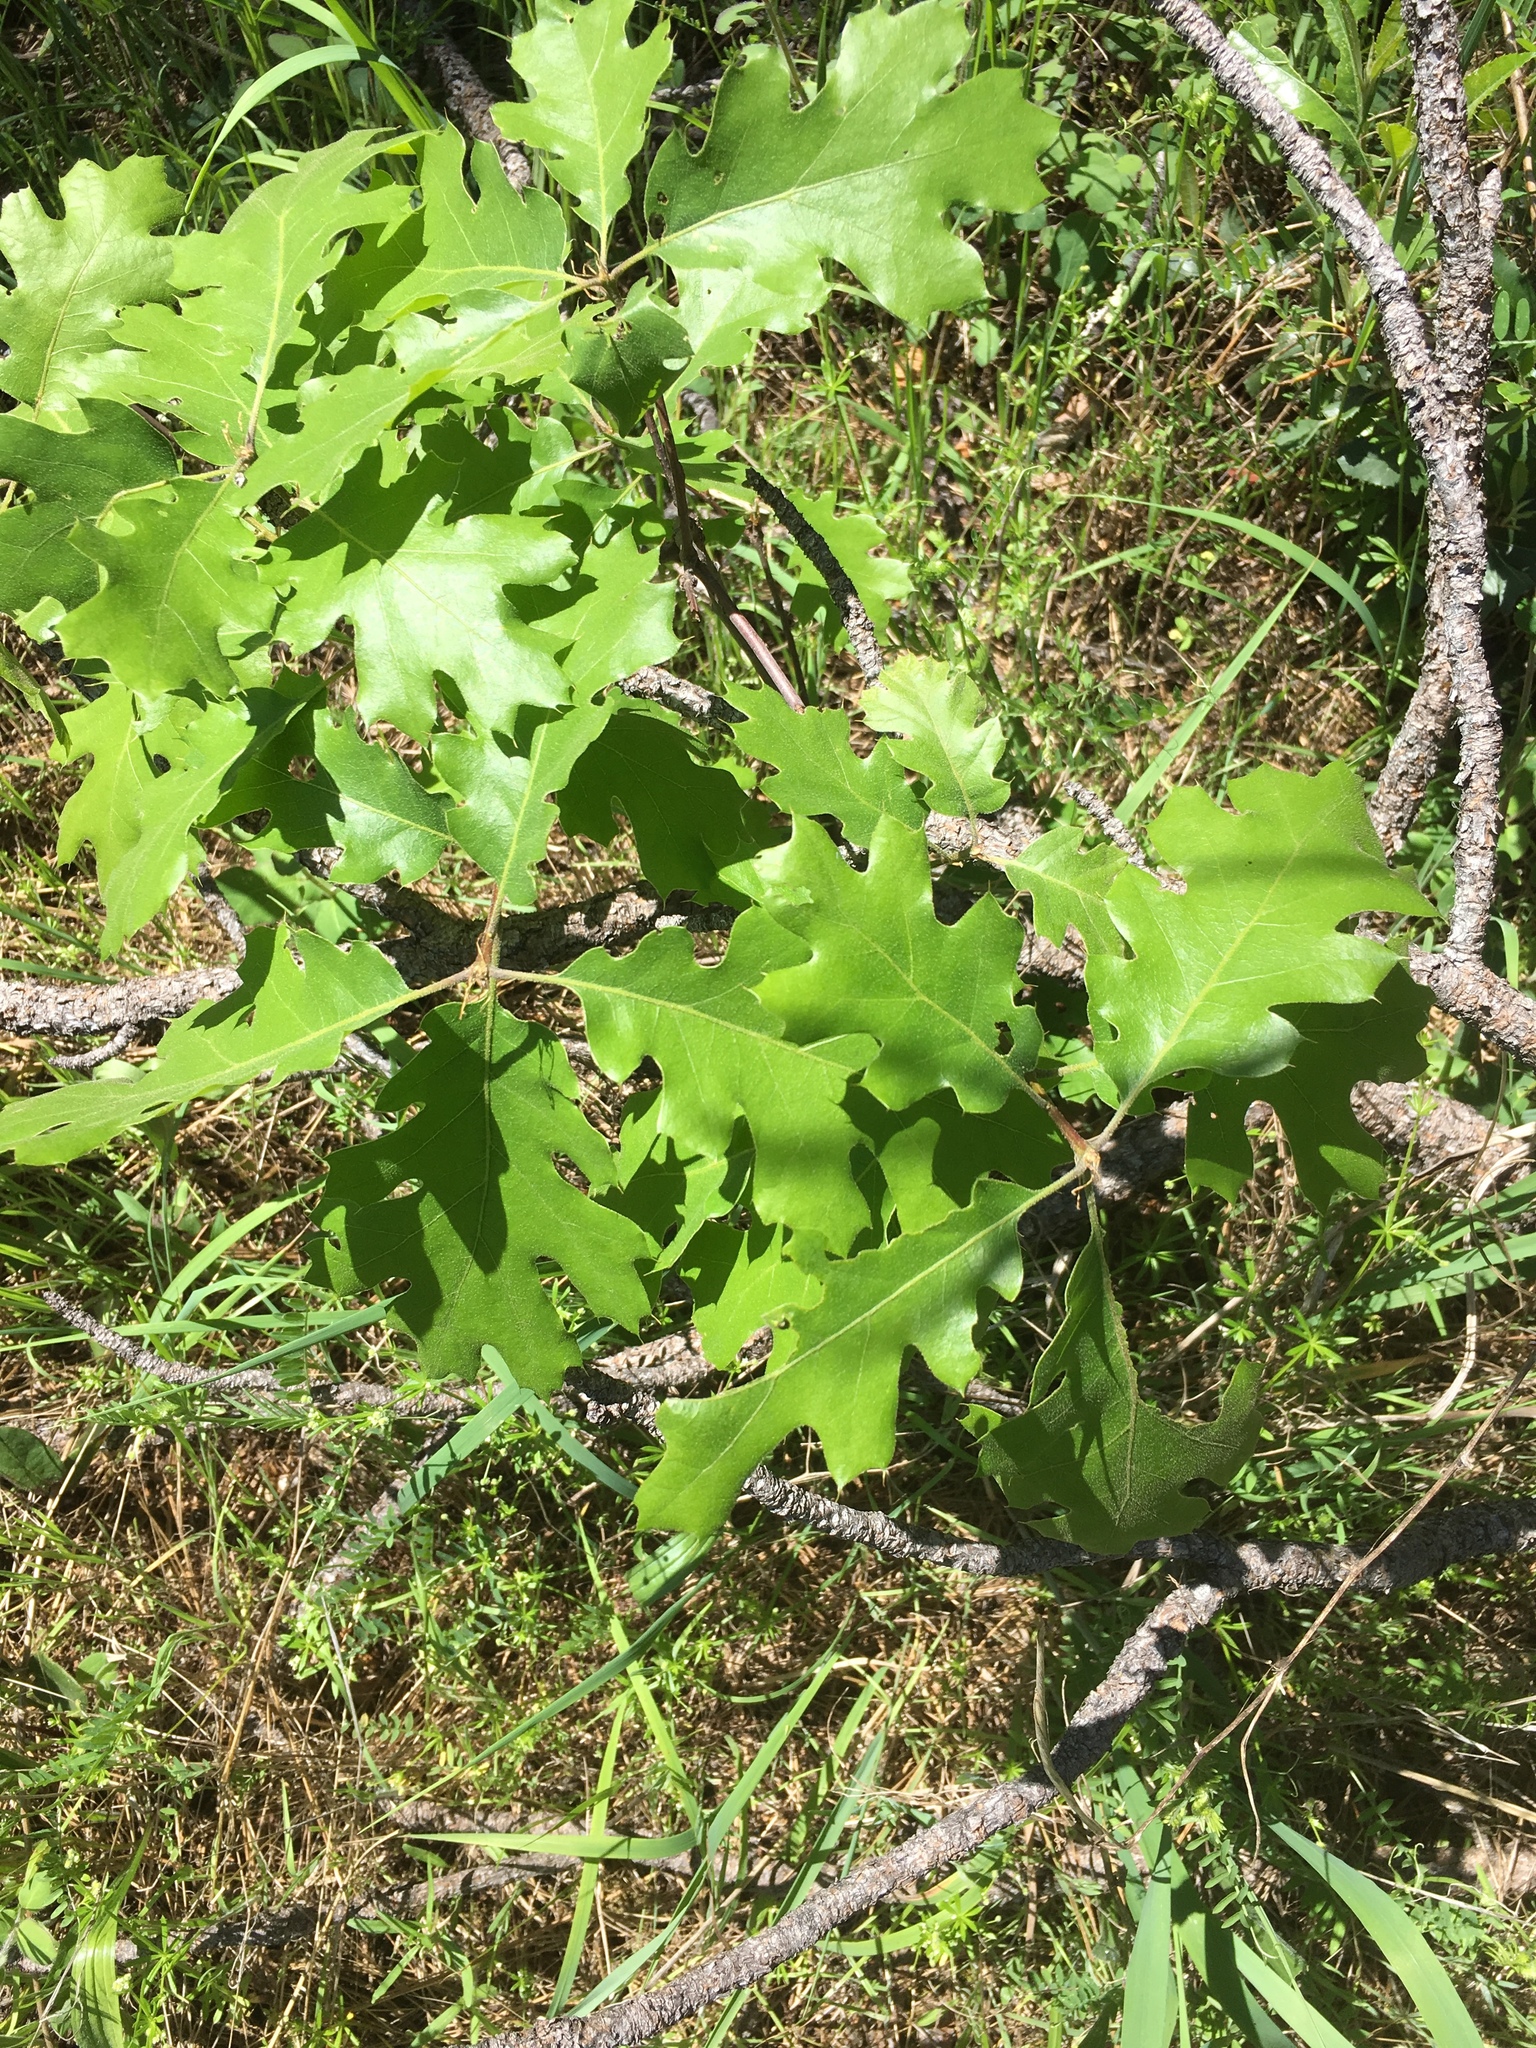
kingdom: Plantae
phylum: Tracheophyta
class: Magnoliopsida
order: Fagales
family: Fagaceae
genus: Quercus
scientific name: Quercus kelloggii
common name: California black oak
